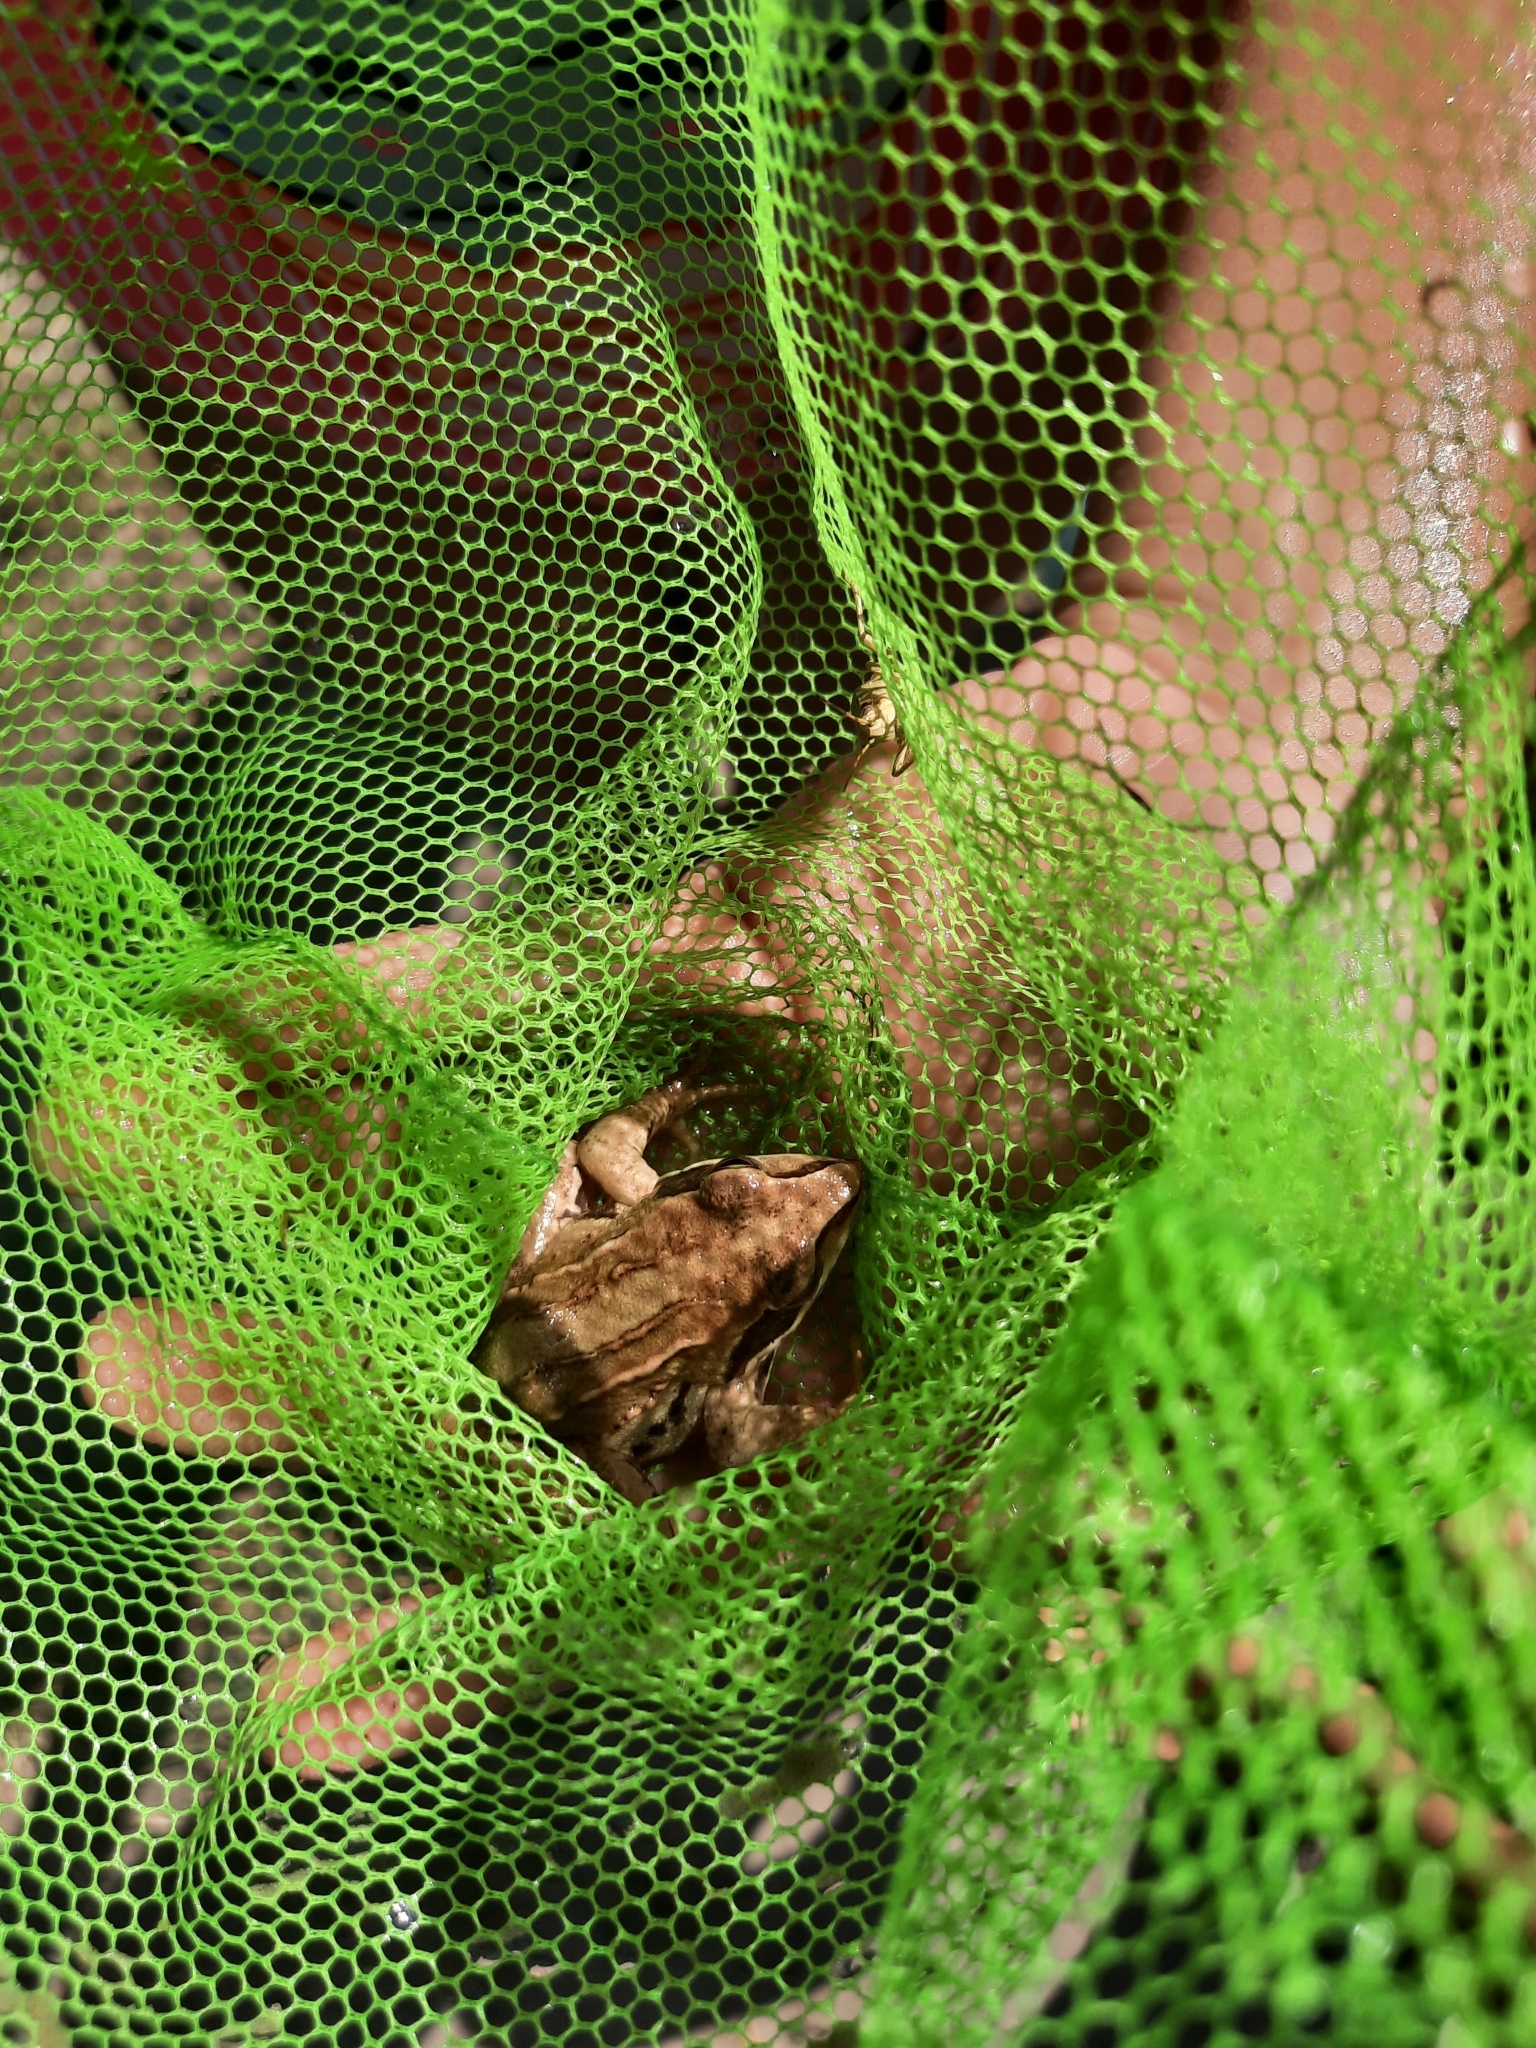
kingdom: Animalia
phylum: Chordata
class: Amphibia
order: Anura
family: Ranidae
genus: Rana
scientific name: Rana arvalis
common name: Moor frog
